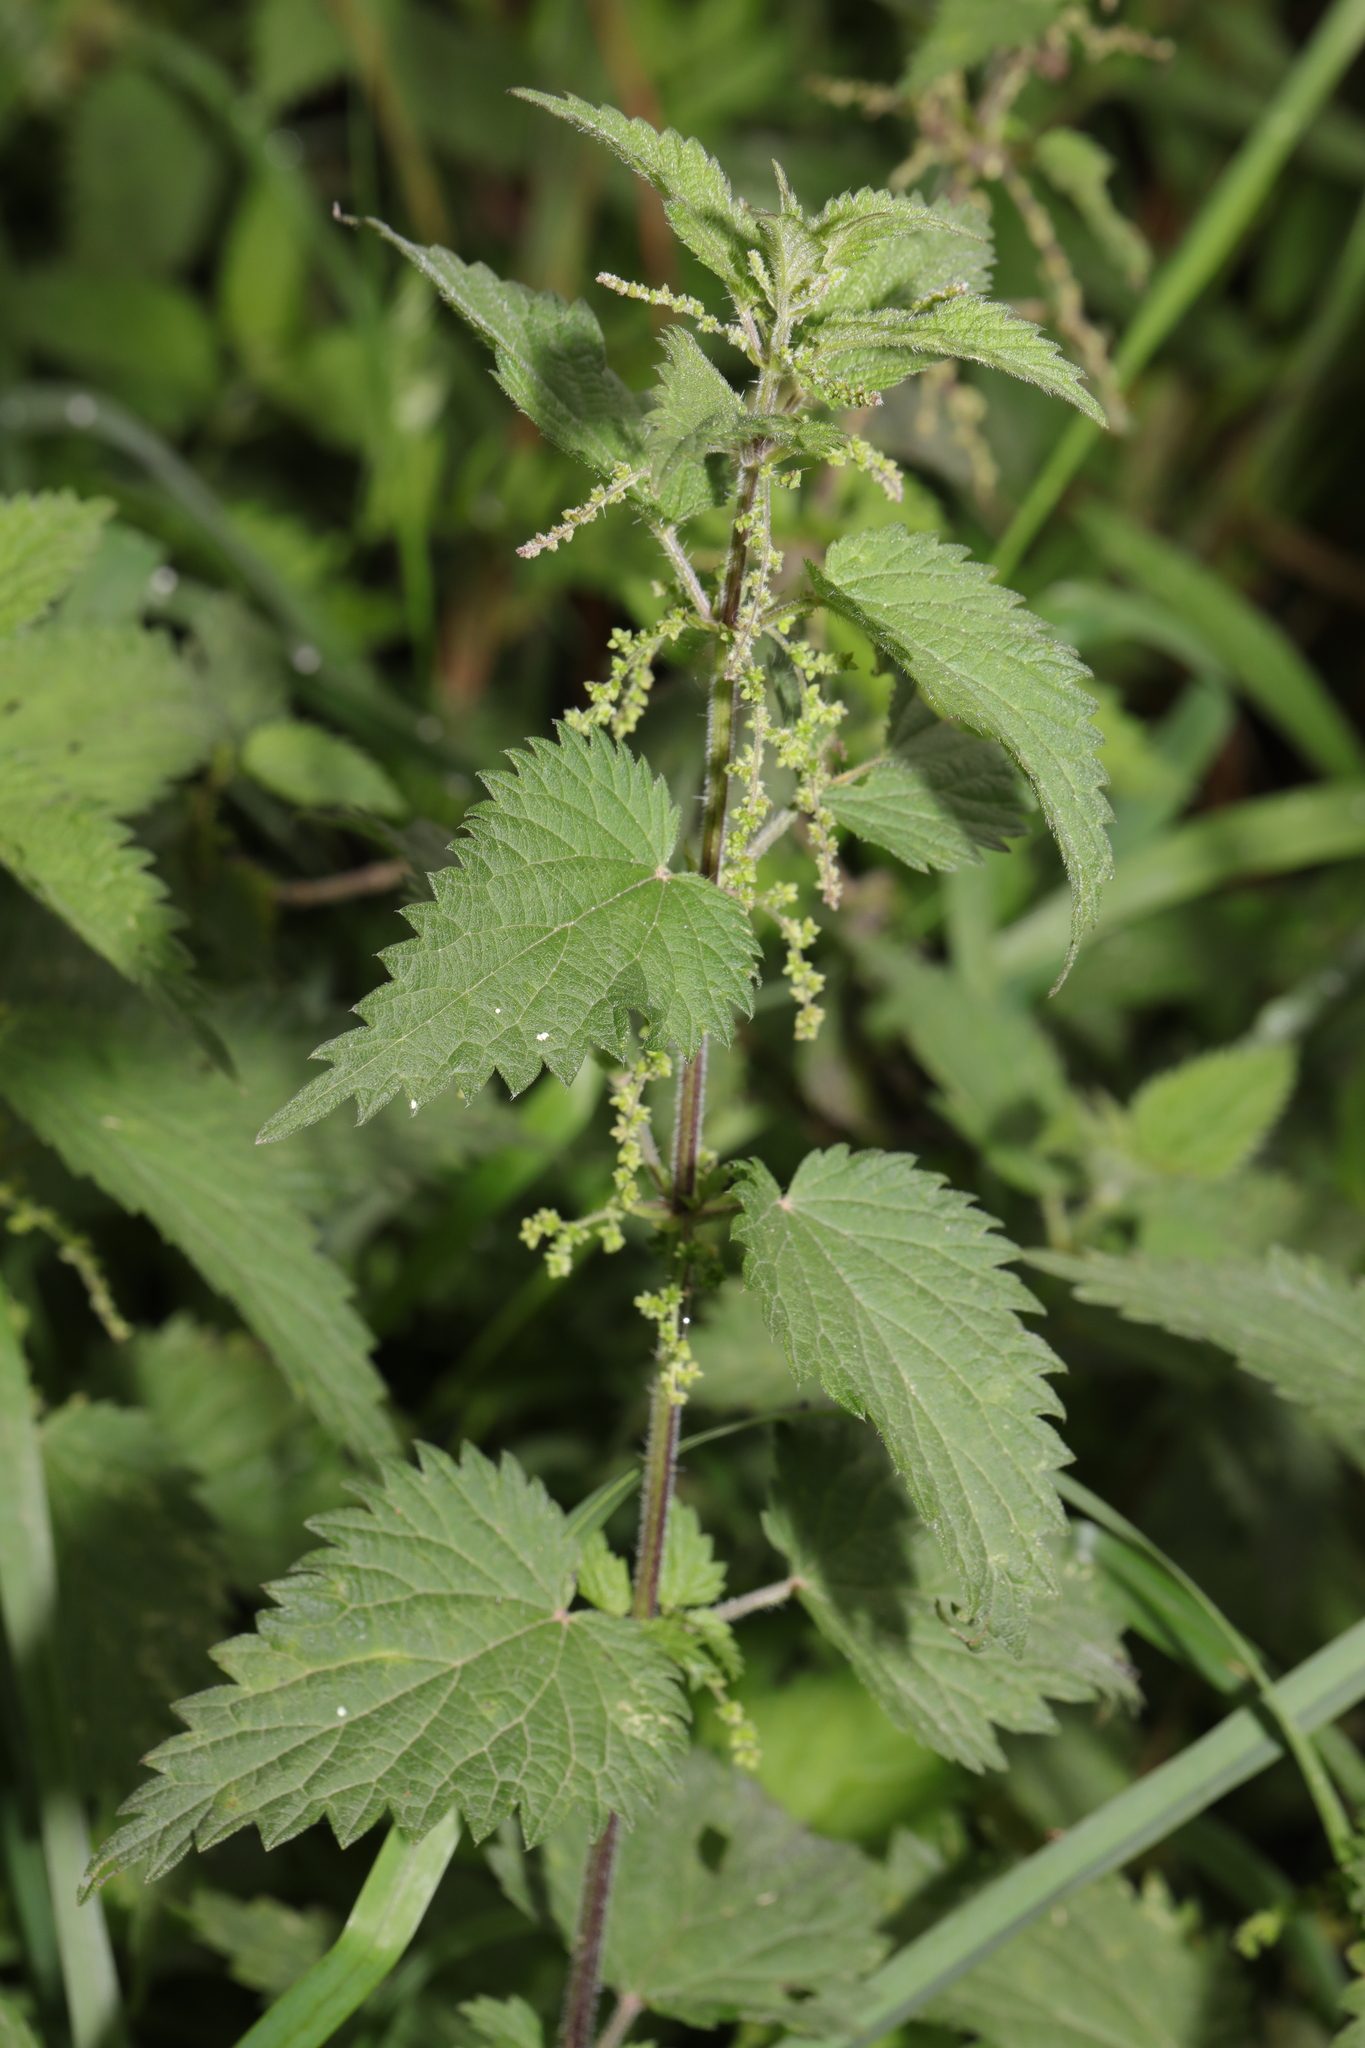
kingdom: Plantae
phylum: Tracheophyta
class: Magnoliopsida
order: Rosales
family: Urticaceae
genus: Urtica
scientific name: Urtica dioica
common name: Common nettle
